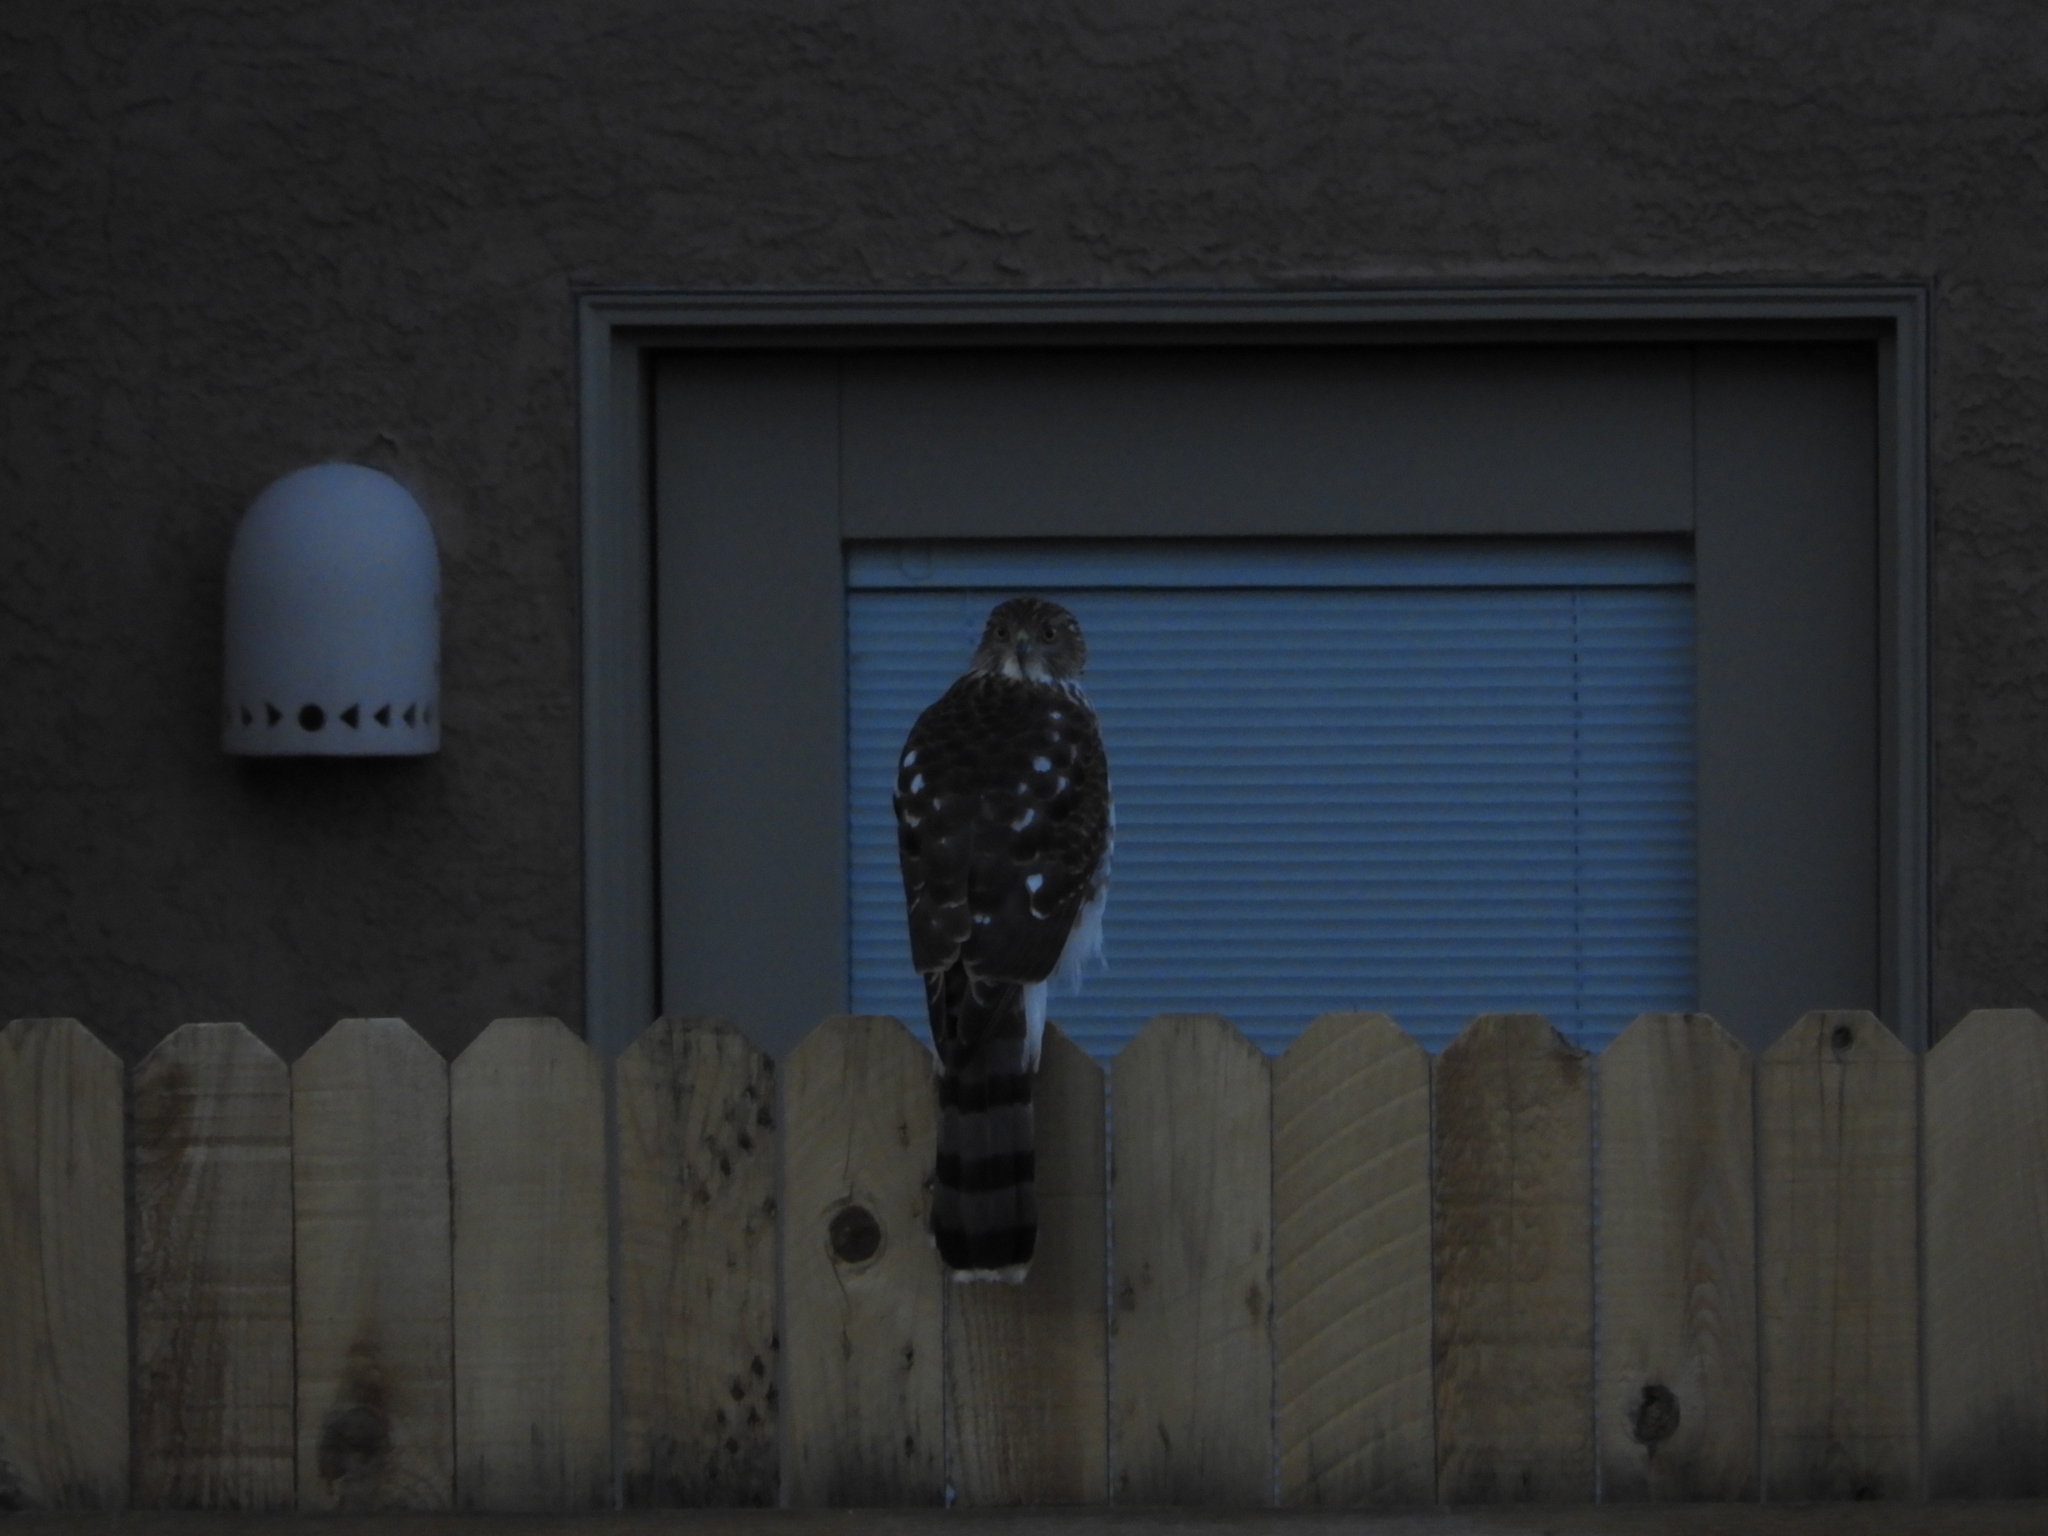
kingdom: Animalia
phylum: Chordata
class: Aves
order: Accipitriformes
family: Accipitridae
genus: Accipiter
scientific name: Accipiter cooperii
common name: Cooper's hawk
